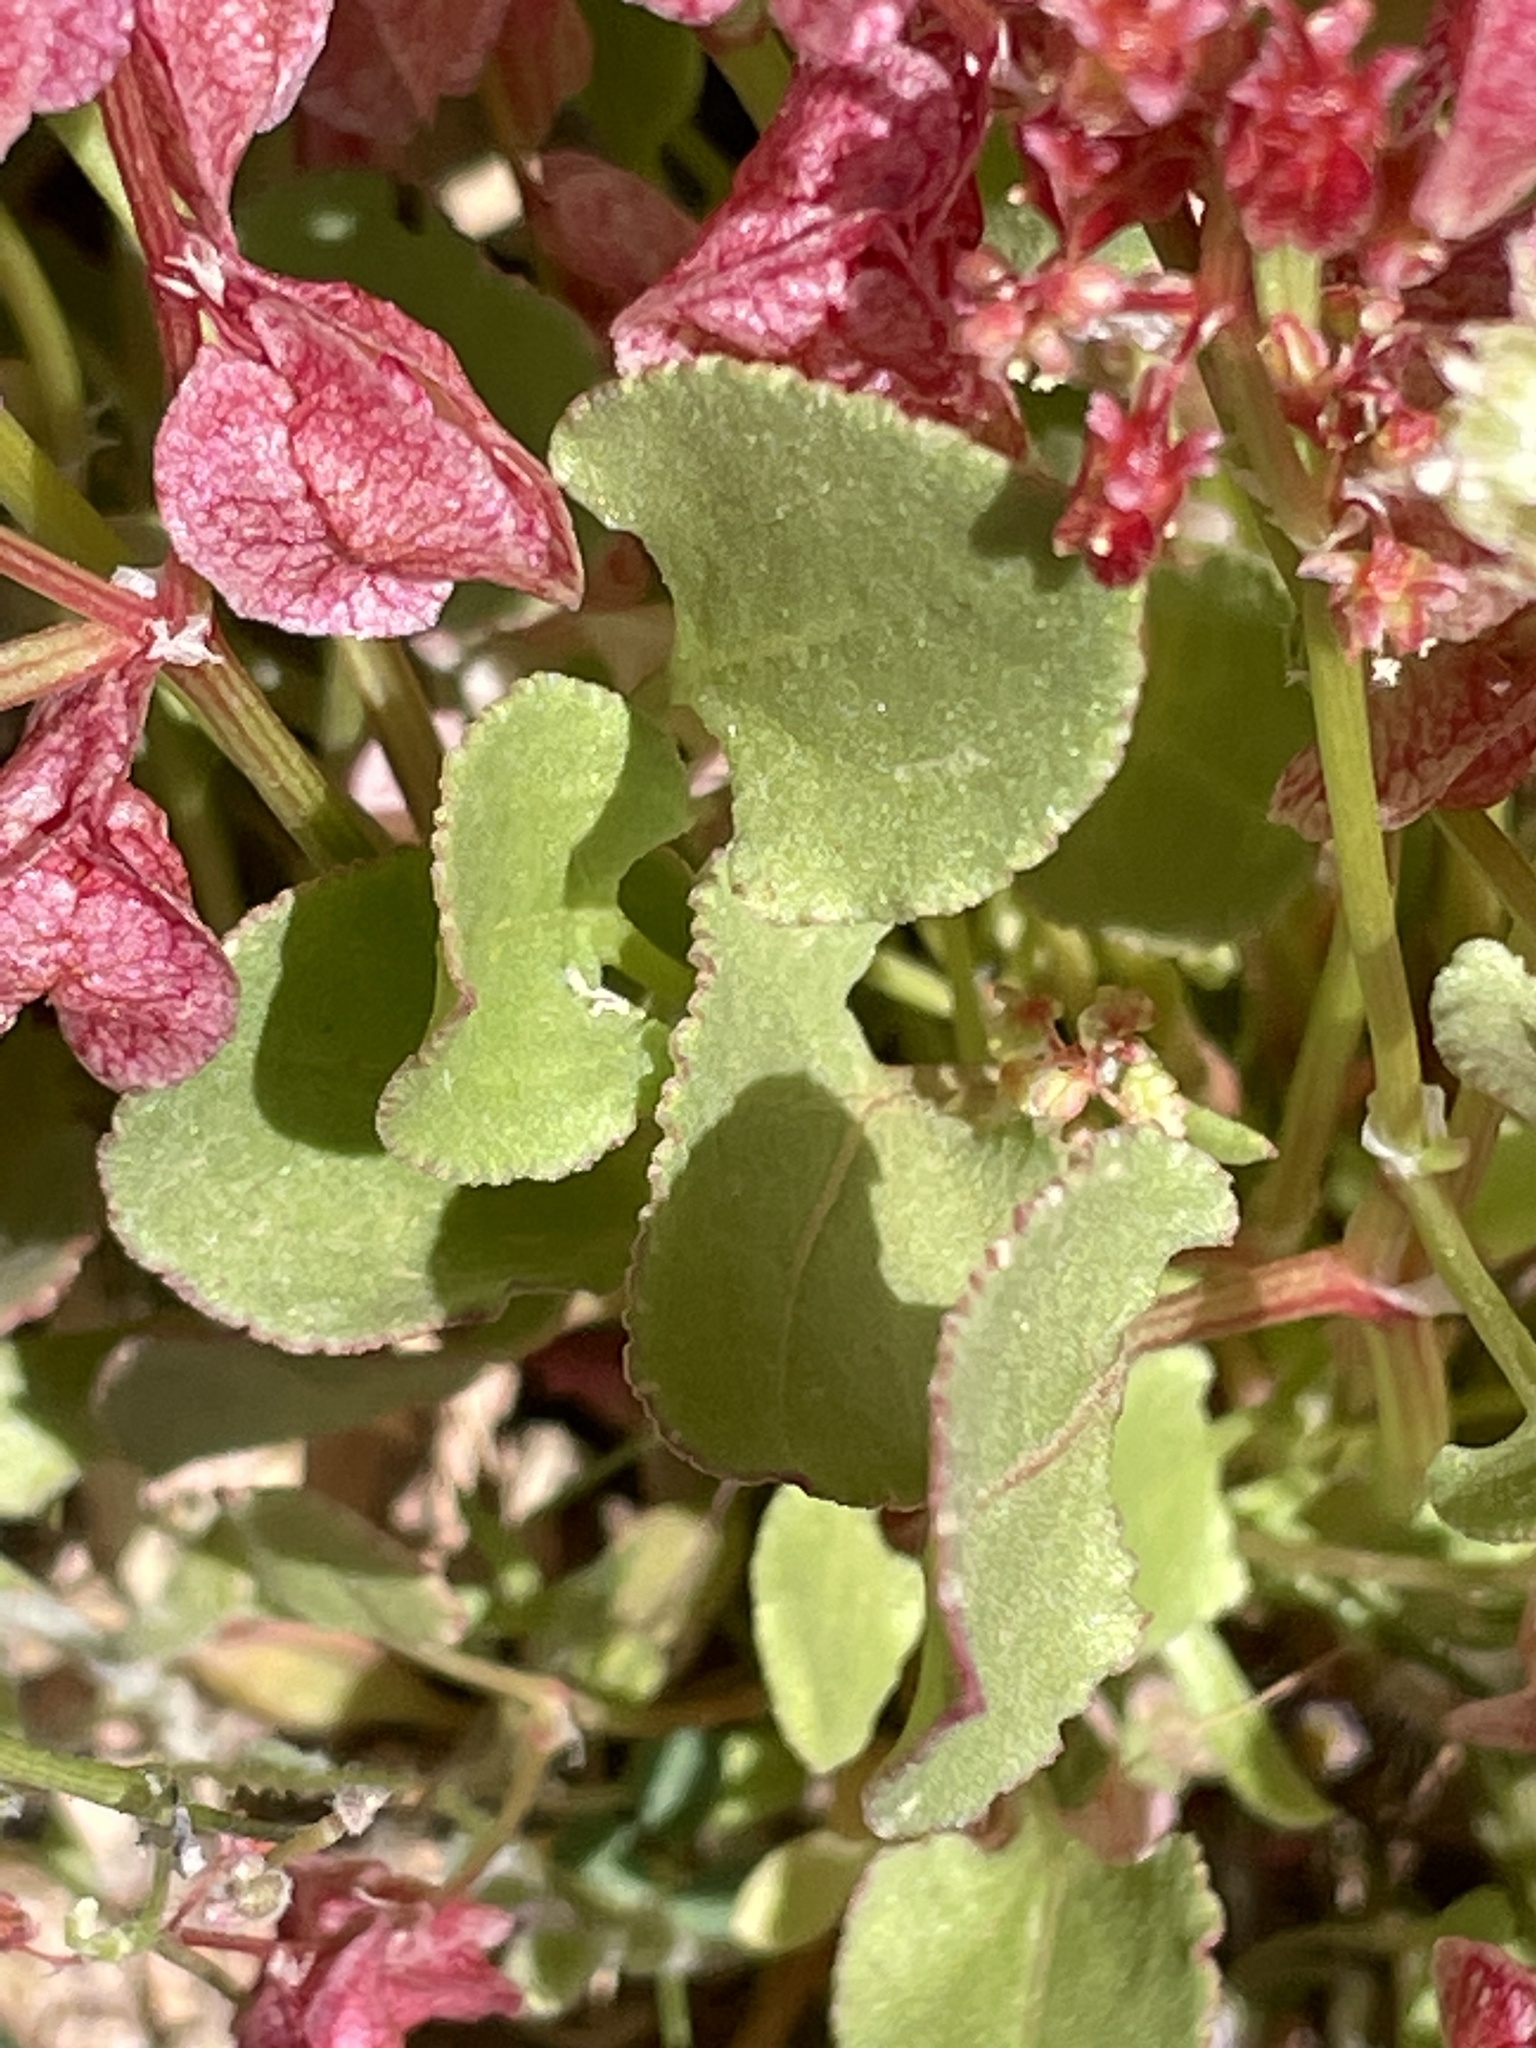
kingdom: Plantae
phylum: Tracheophyta
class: Magnoliopsida
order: Caryophyllales
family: Polygonaceae
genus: Rumex
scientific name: Rumex vesicarius
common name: Bladder dock
